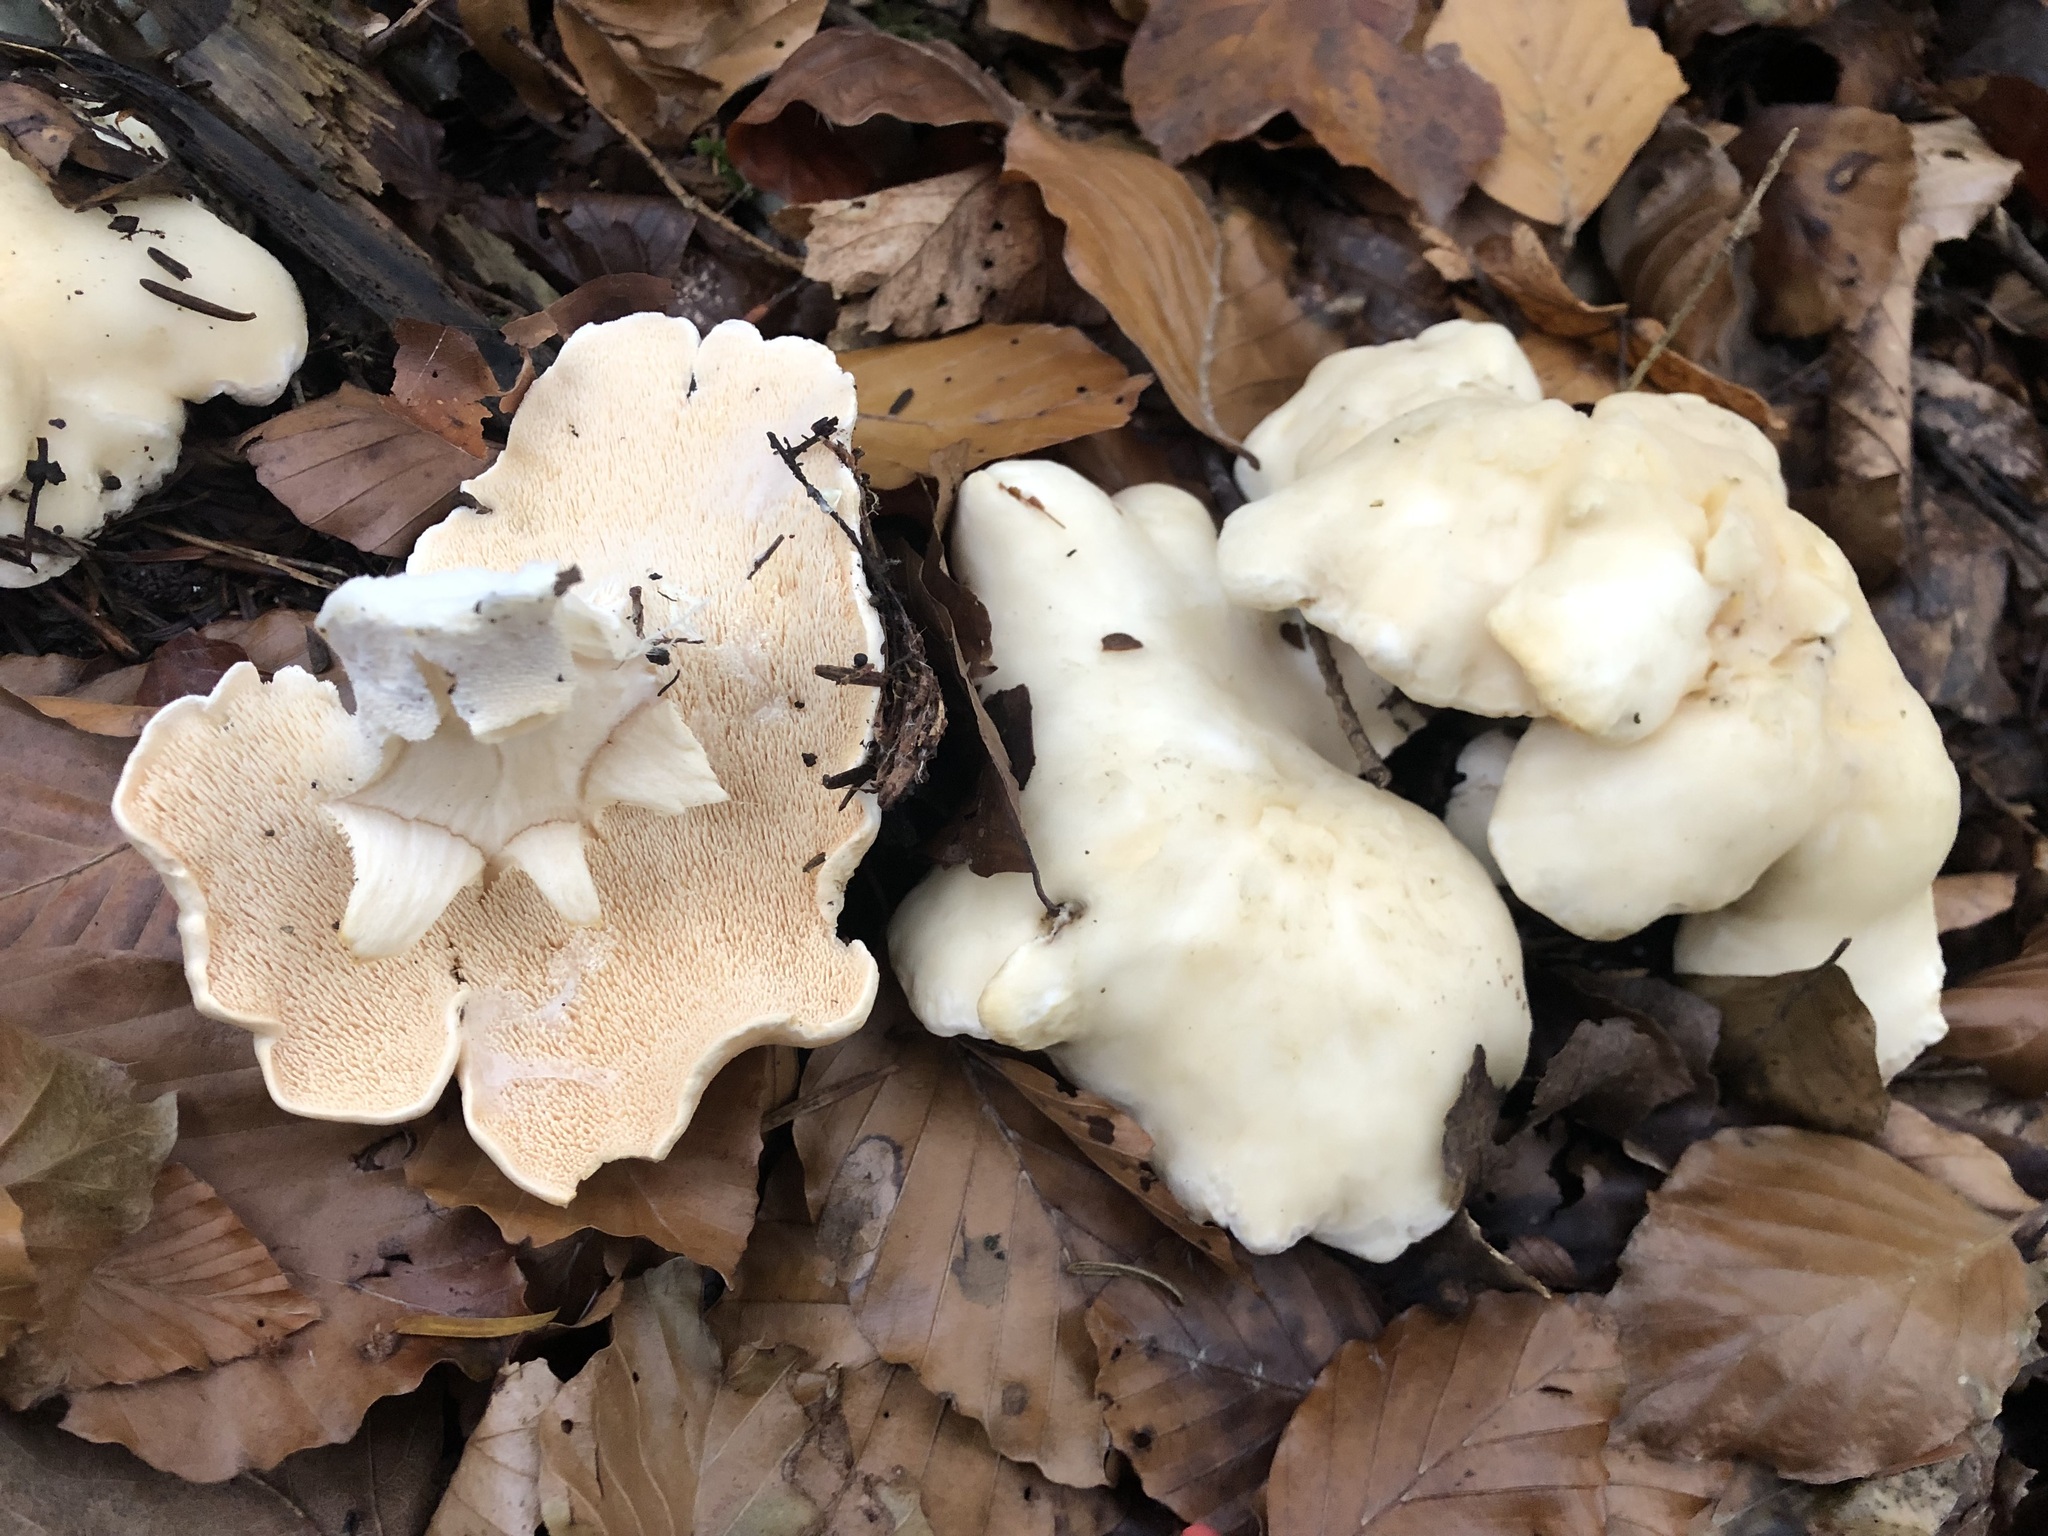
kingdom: Fungi
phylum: Basidiomycota
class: Agaricomycetes
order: Cantharellales
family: Hydnaceae
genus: Hydnum
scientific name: Hydnum repandum
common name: Wood hedgehog
